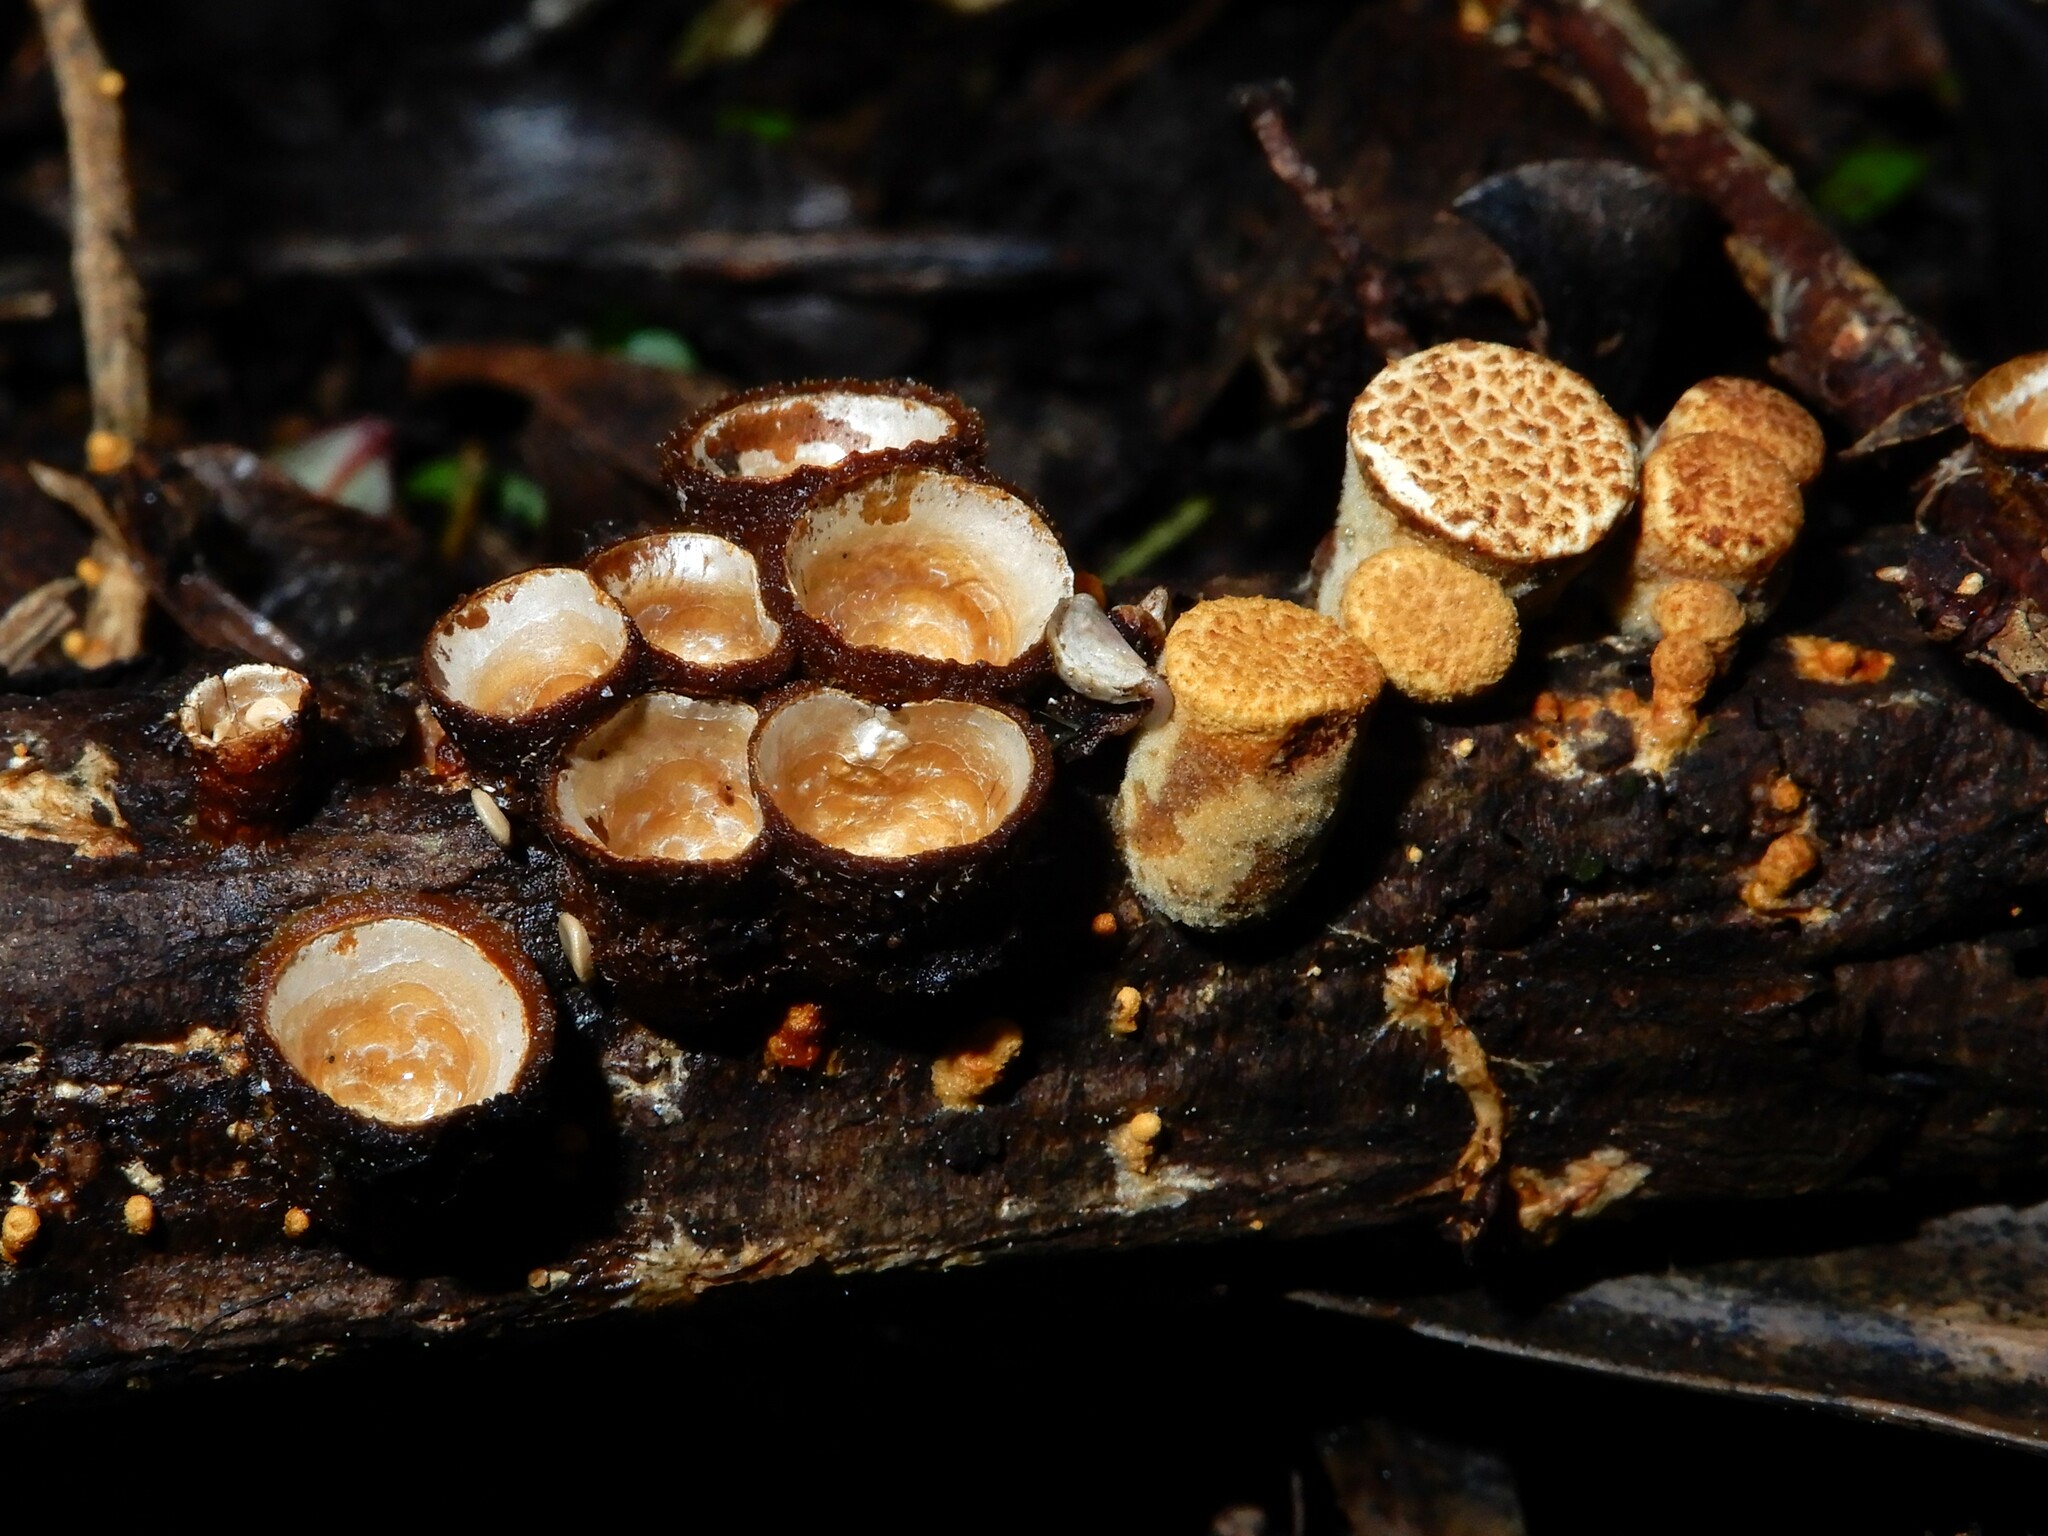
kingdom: Fungi
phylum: Basidiomycota
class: Agaricomycetes
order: Agaricales
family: Nidulariaceae
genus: Crucibulum
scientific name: Crucibulum simile
